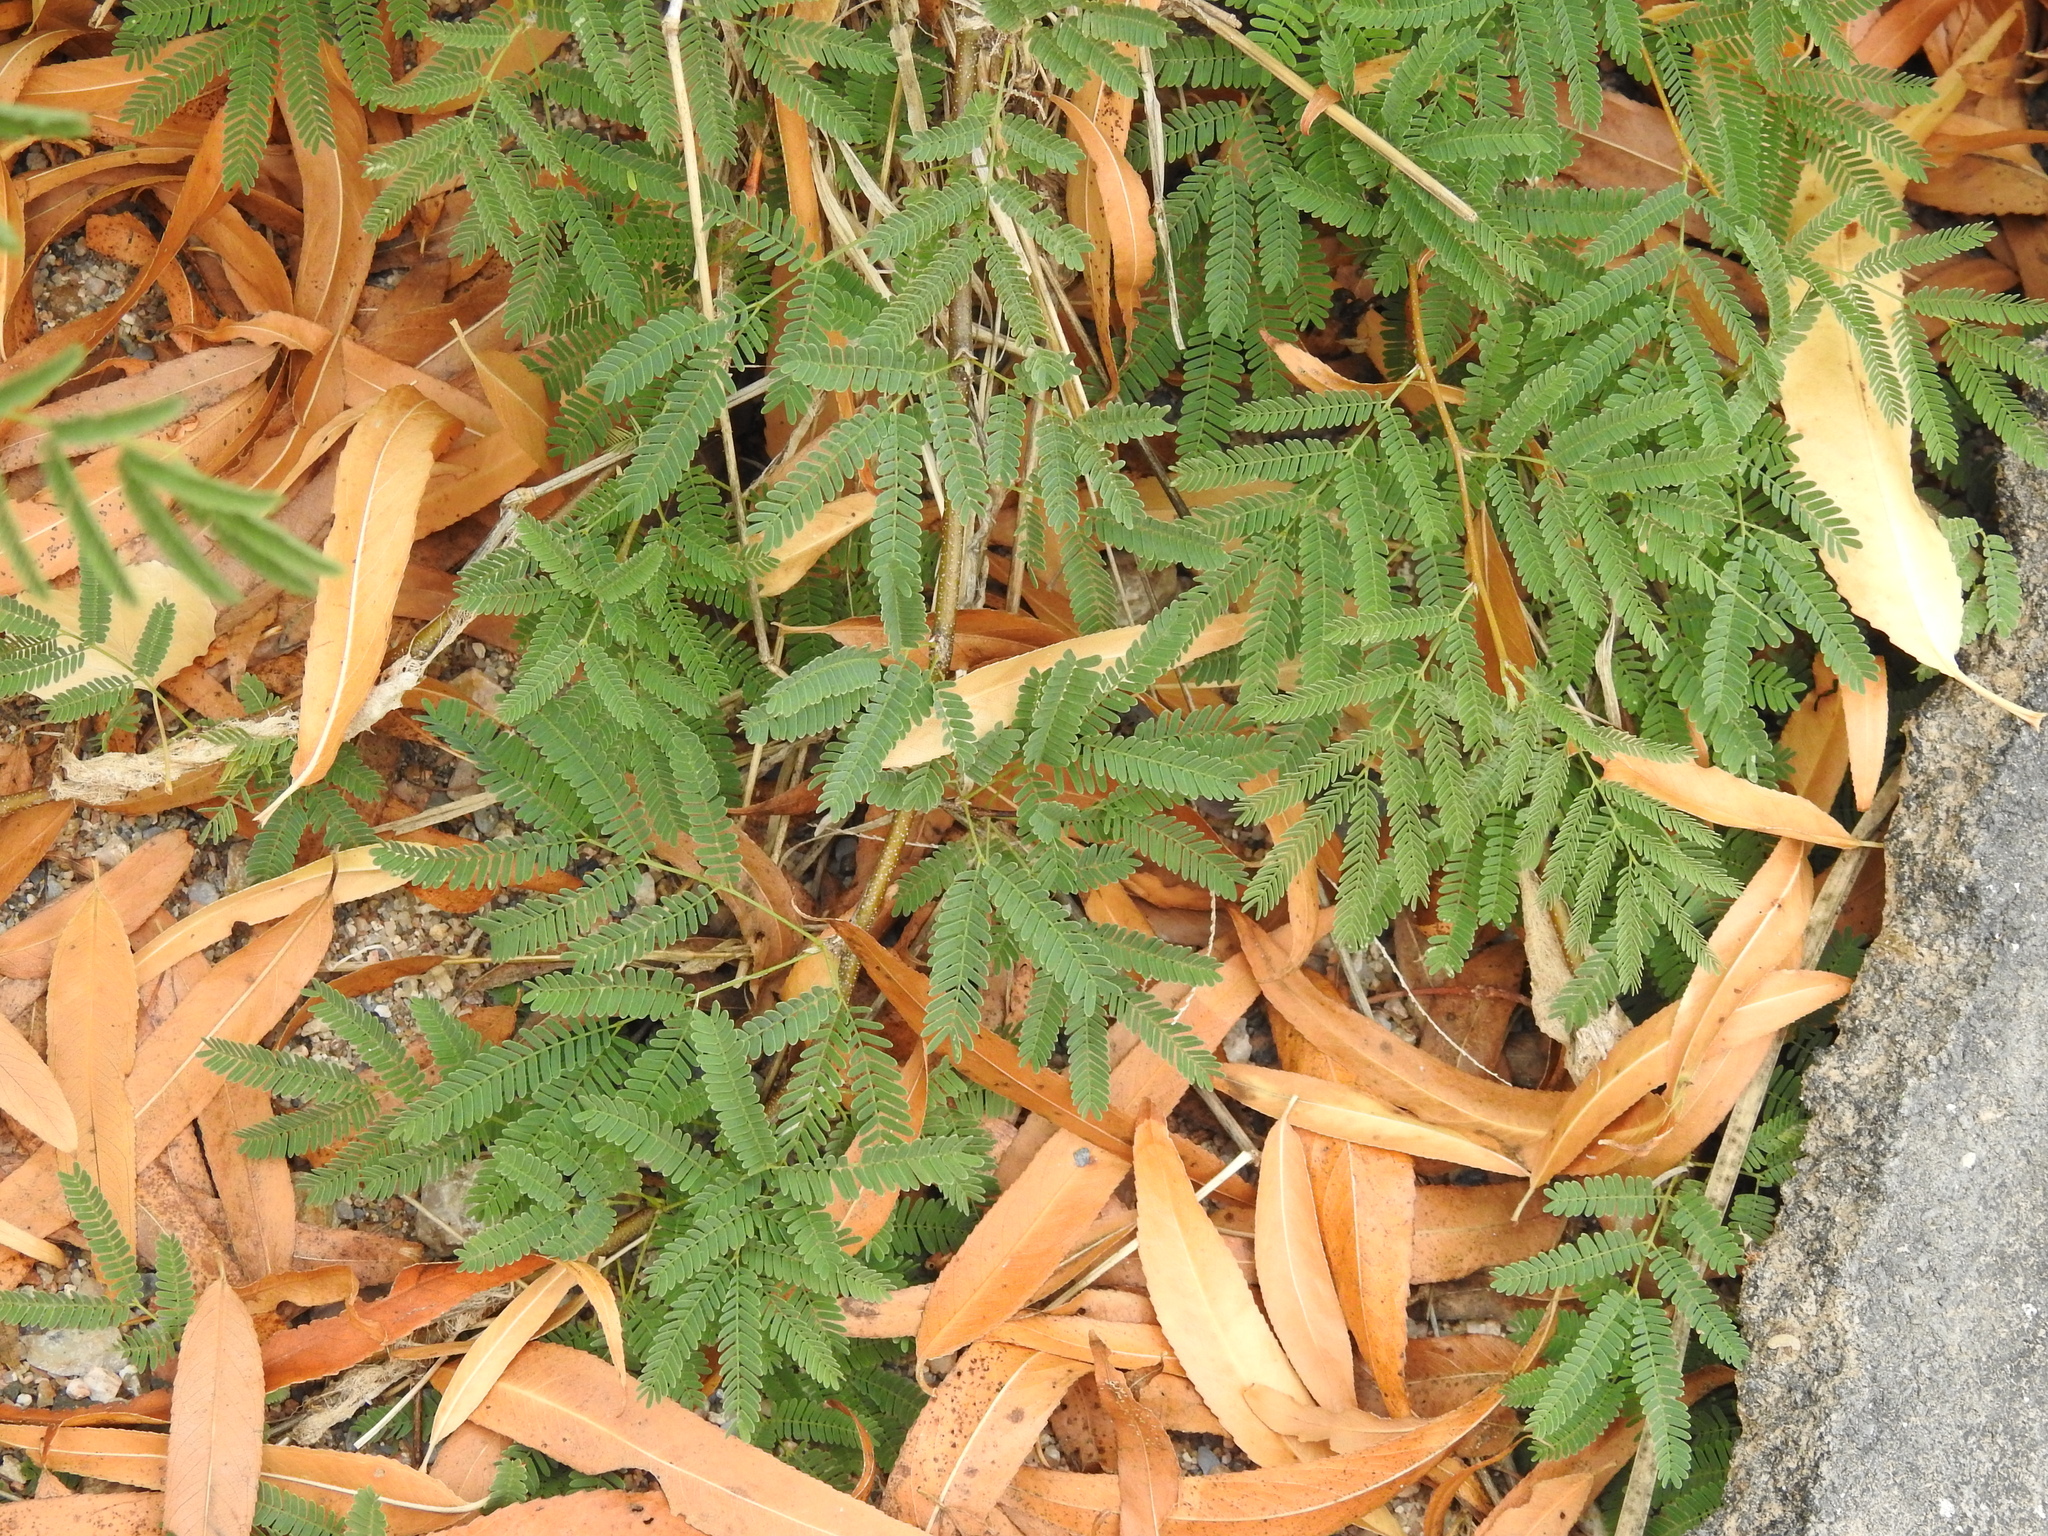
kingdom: Plantae
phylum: Tracheophyta
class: Magnoliopsida
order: Fabales
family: Fabaceae
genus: Vachellia
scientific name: Vachellia farnesiana
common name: Sweet acacia
